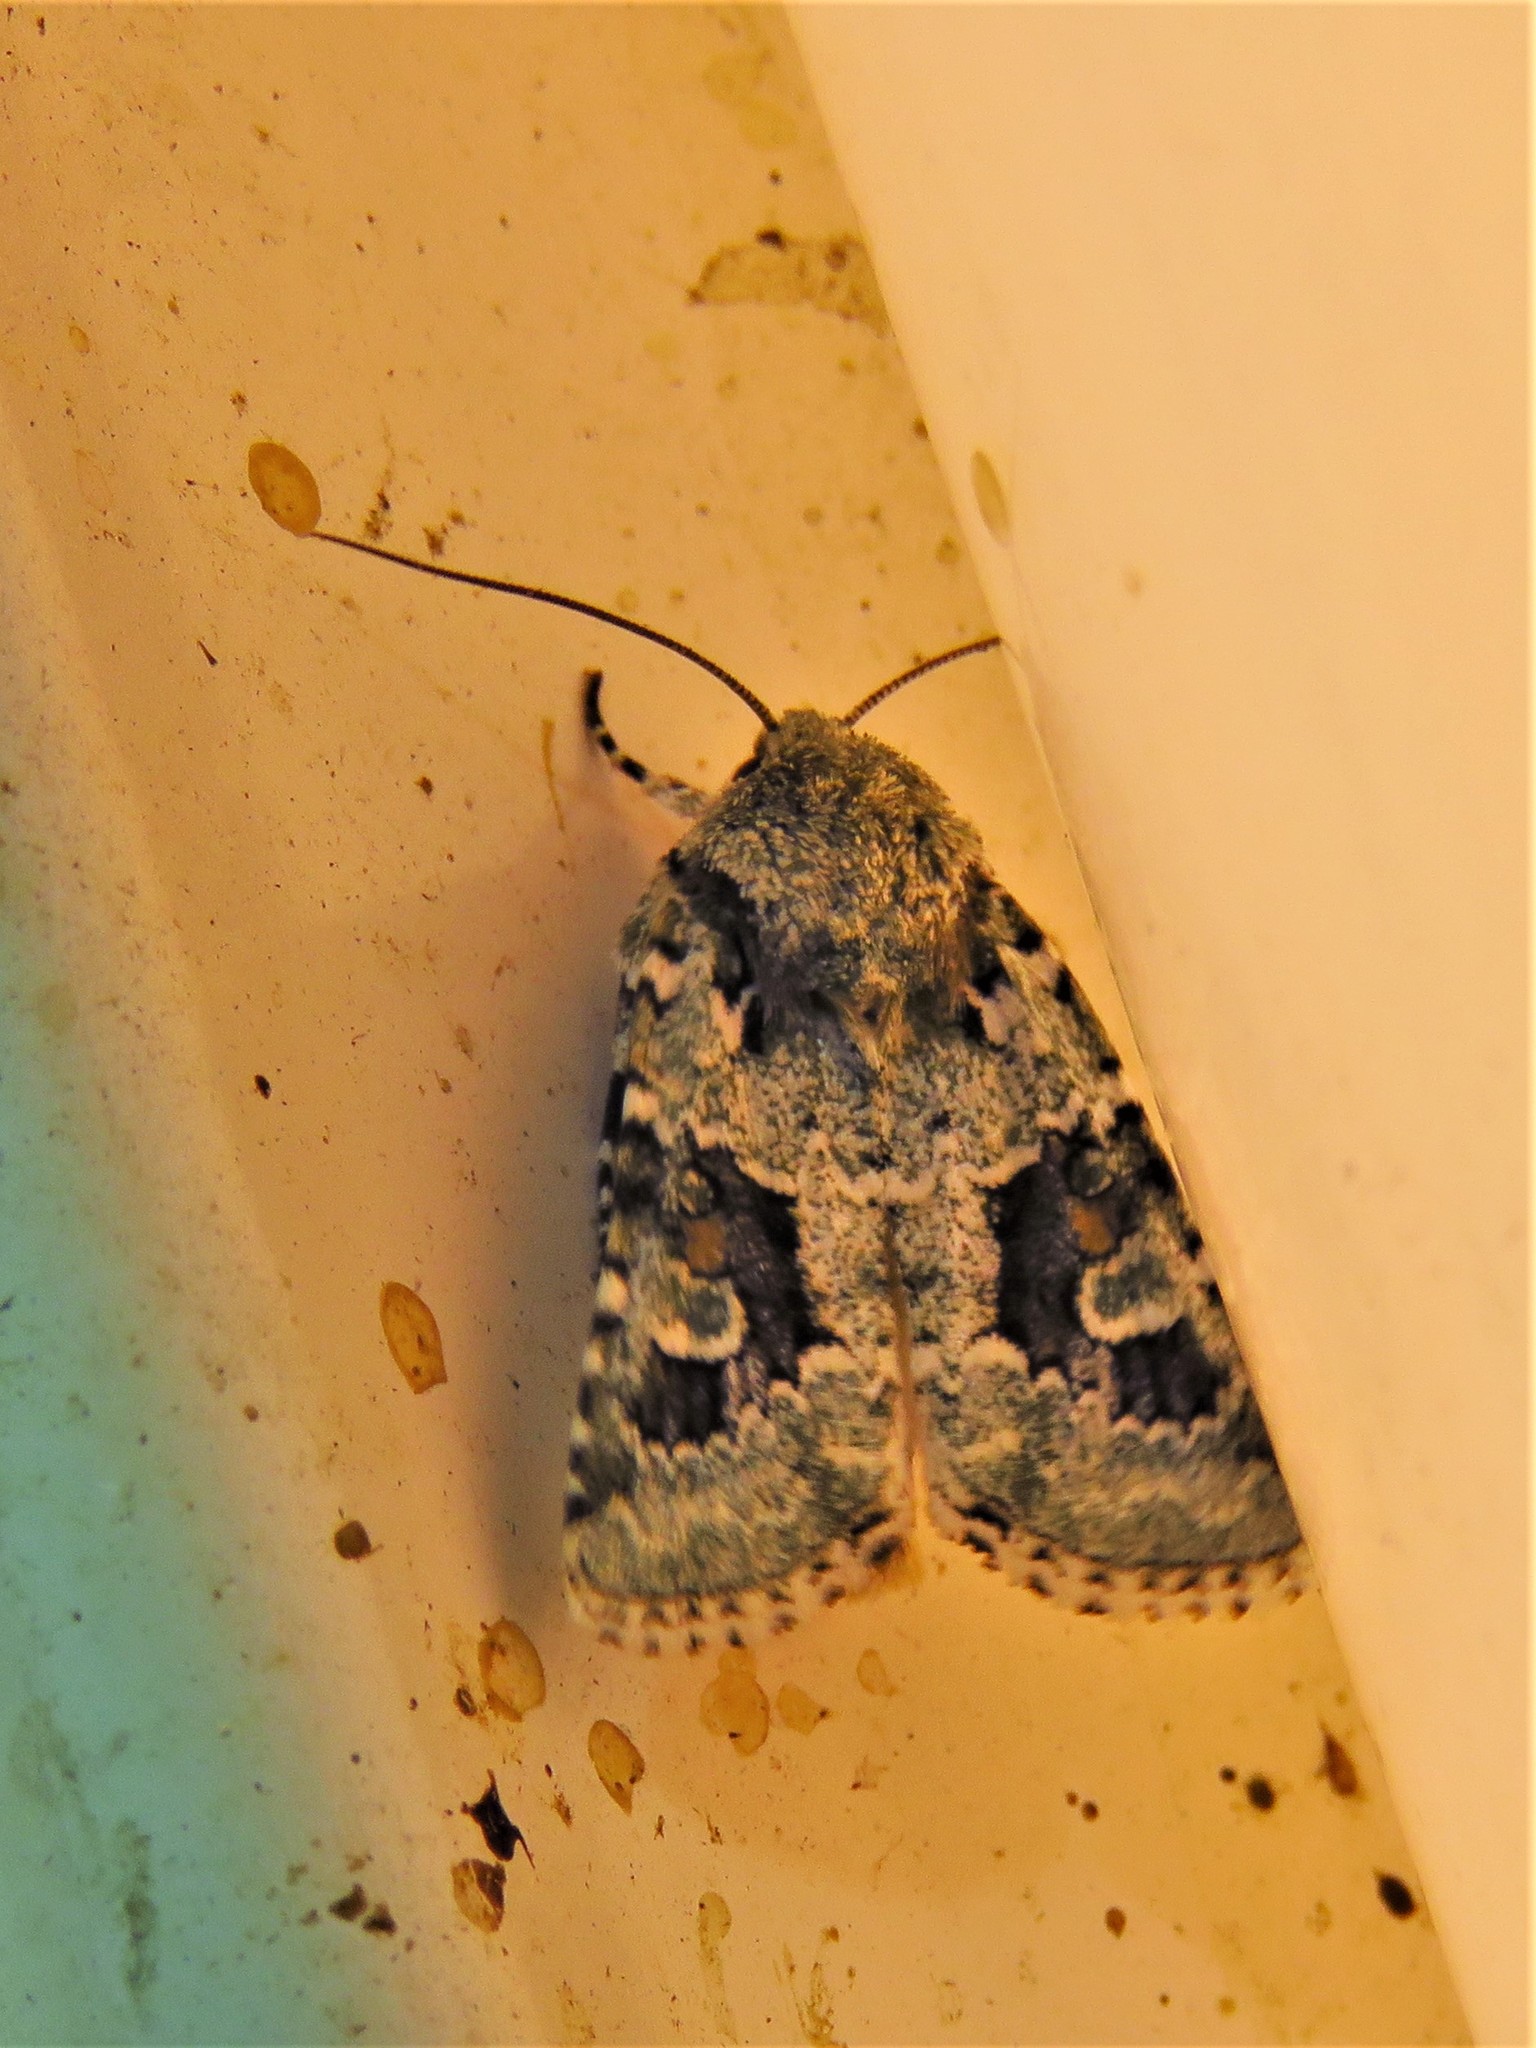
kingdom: Animalia
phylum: Arthropoda
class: Insecta
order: Lepidoptera
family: Noctuidae
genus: Lacinipolia
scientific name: Lacinipolia laudabilis
